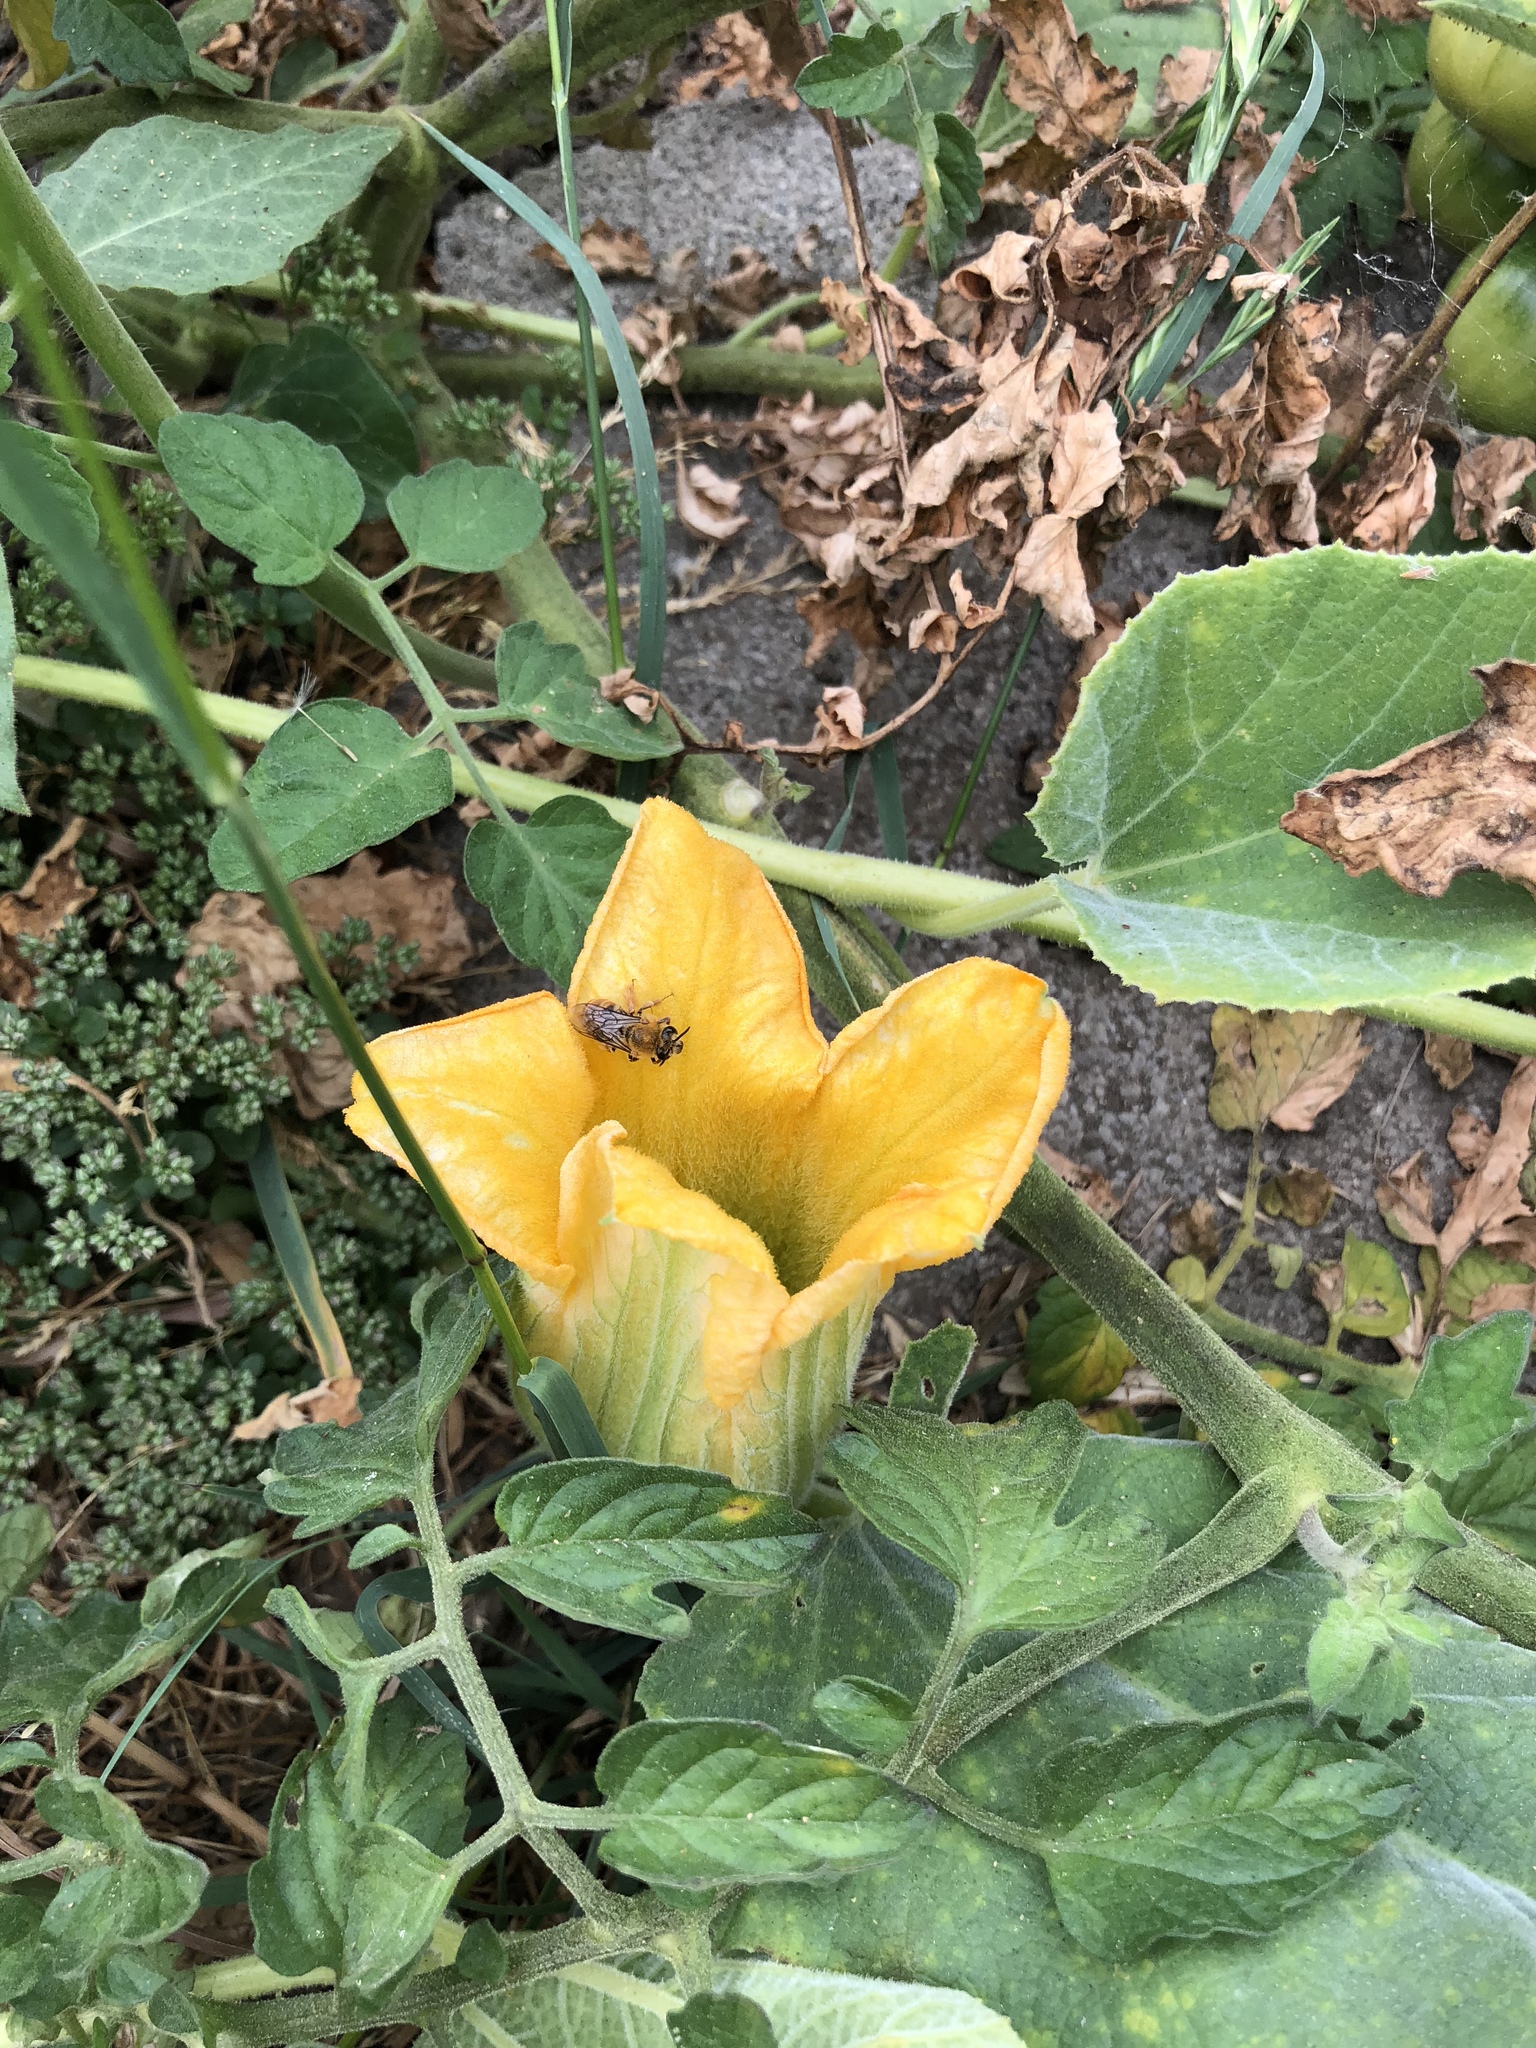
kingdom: Animalia
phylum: Arthropoda
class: Insecta
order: Hymenoptera
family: Apidae
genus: Peponapis
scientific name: Peponapis pruinosa
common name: Pruinose squash bee
